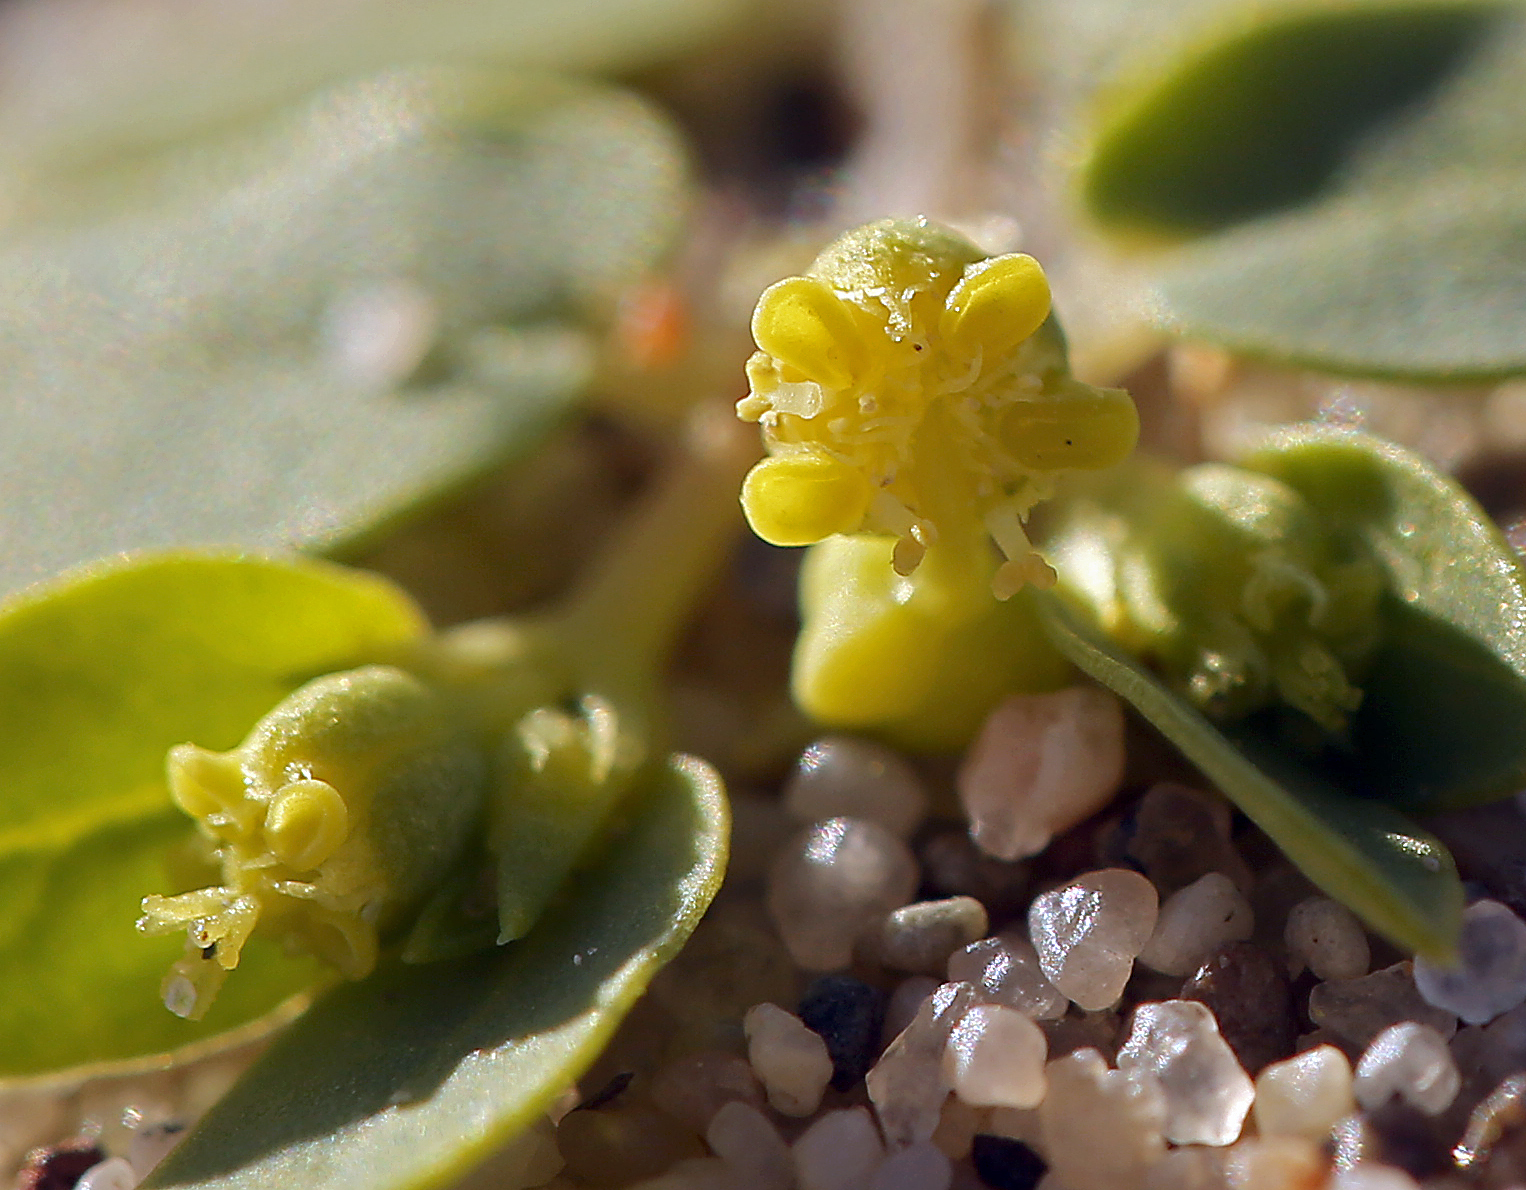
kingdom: Plantae
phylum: Tracheophyta
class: Magnoliopsida
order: Malpighiales
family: Euphorbiaceae
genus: Euphorbia
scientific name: Euphorbia ocellata
